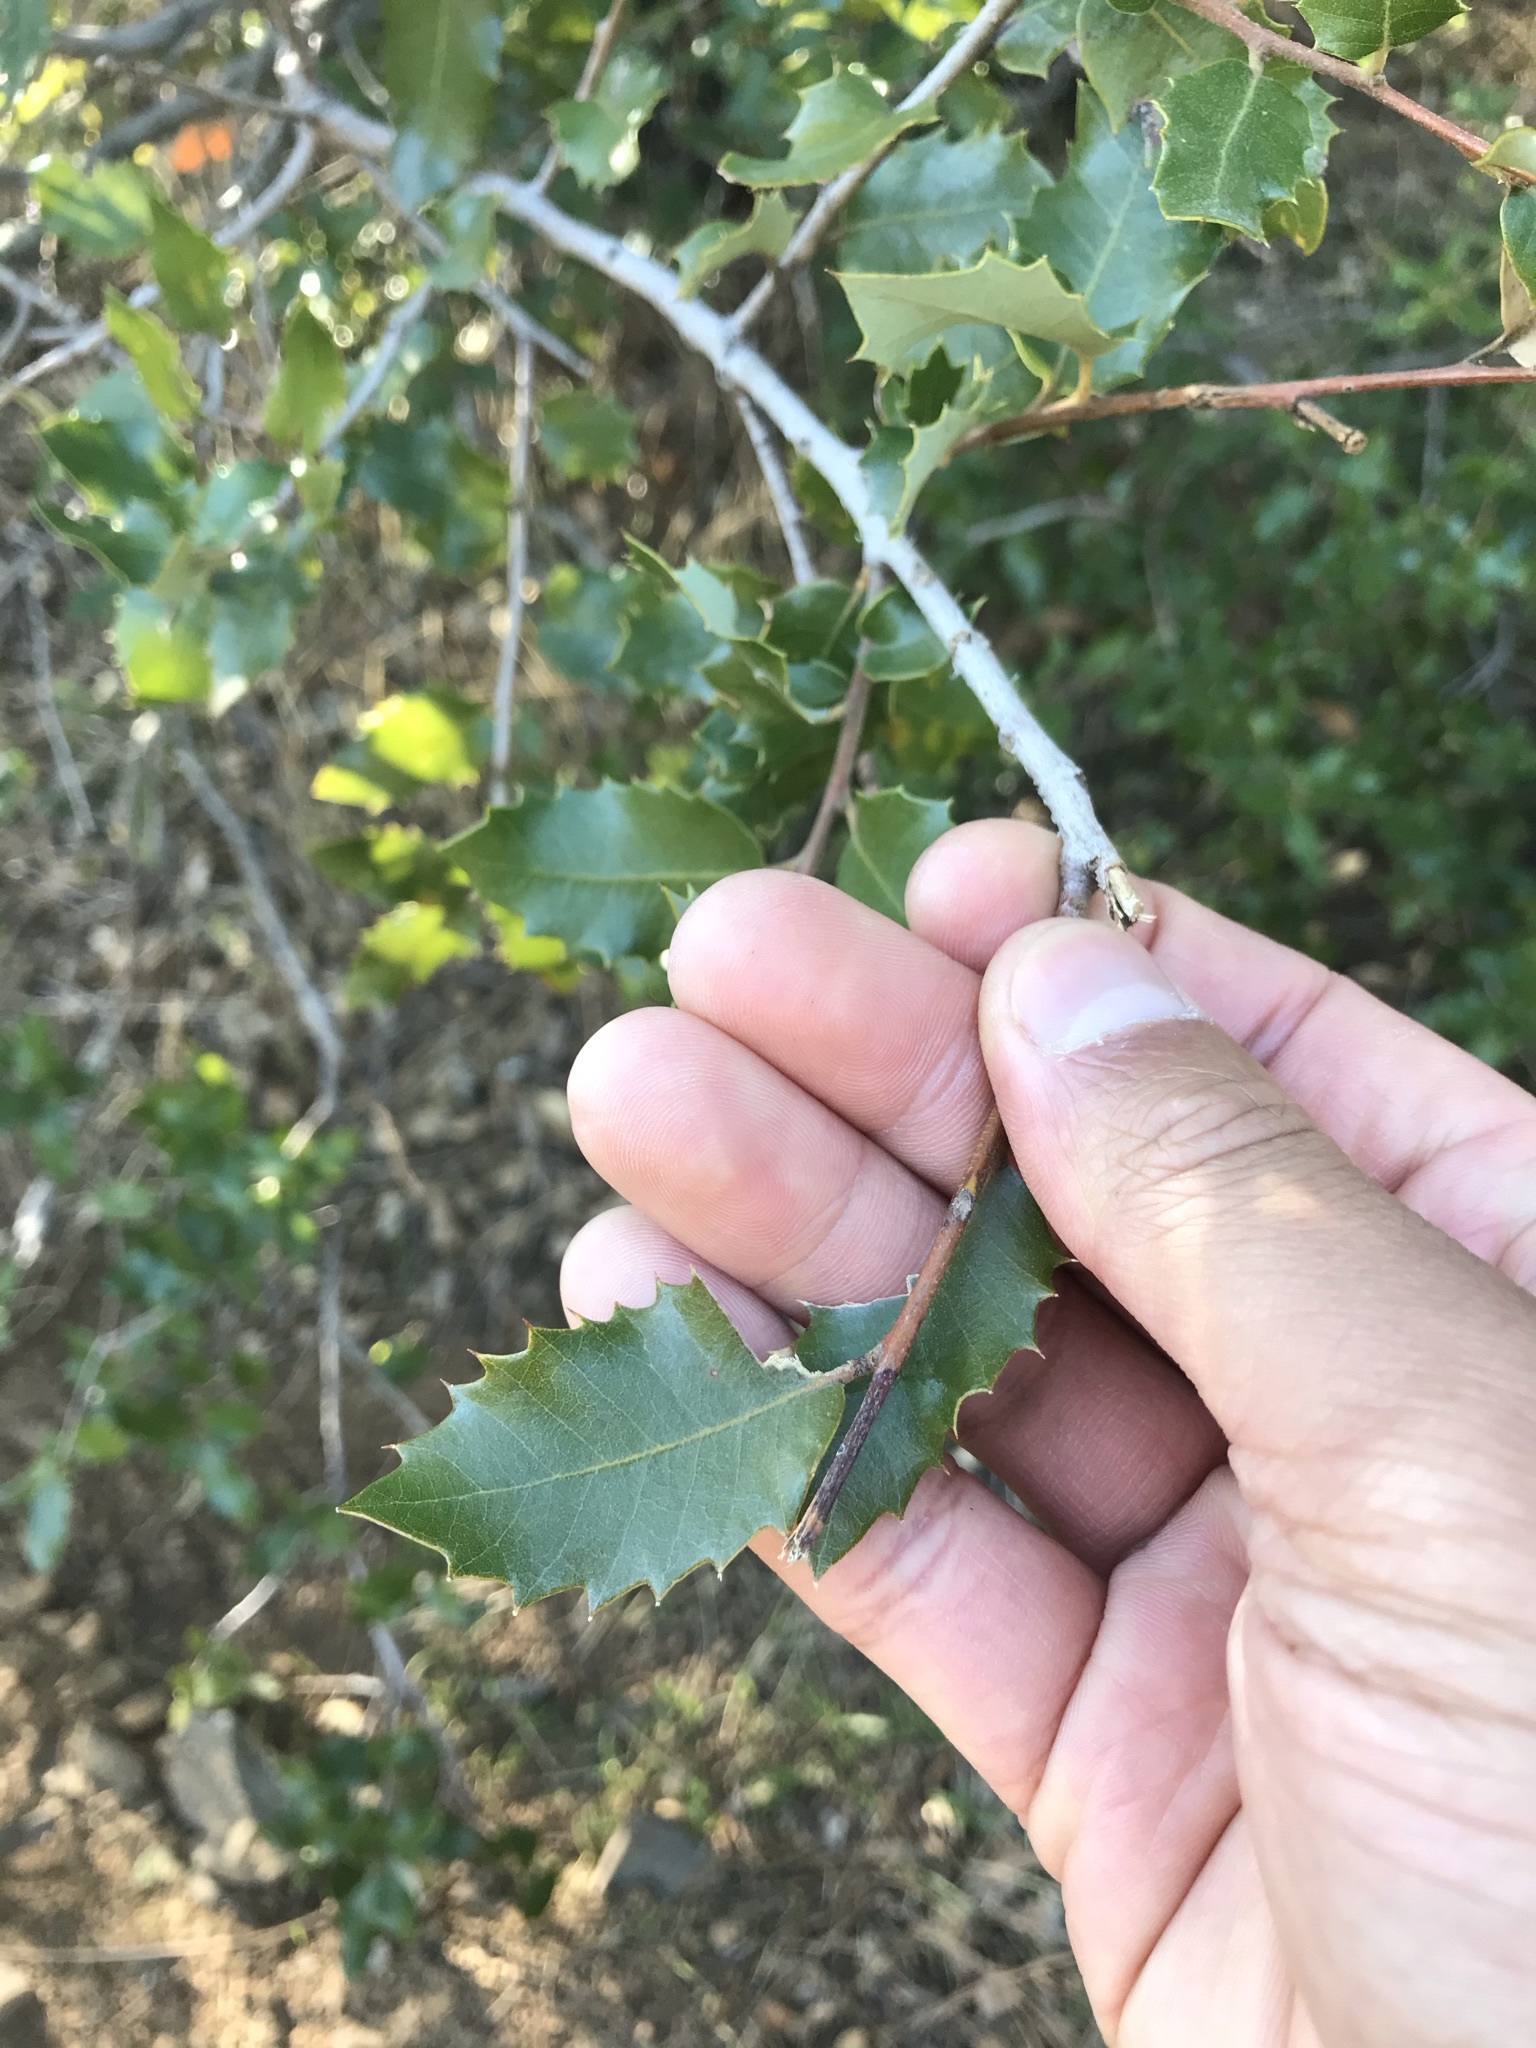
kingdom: Plantae
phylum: Tracheophyta
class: Magnoliopsida
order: Fagales
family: Fagaceae
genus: Quercus
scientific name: Quercus chrysolepis
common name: Canyon live oak
